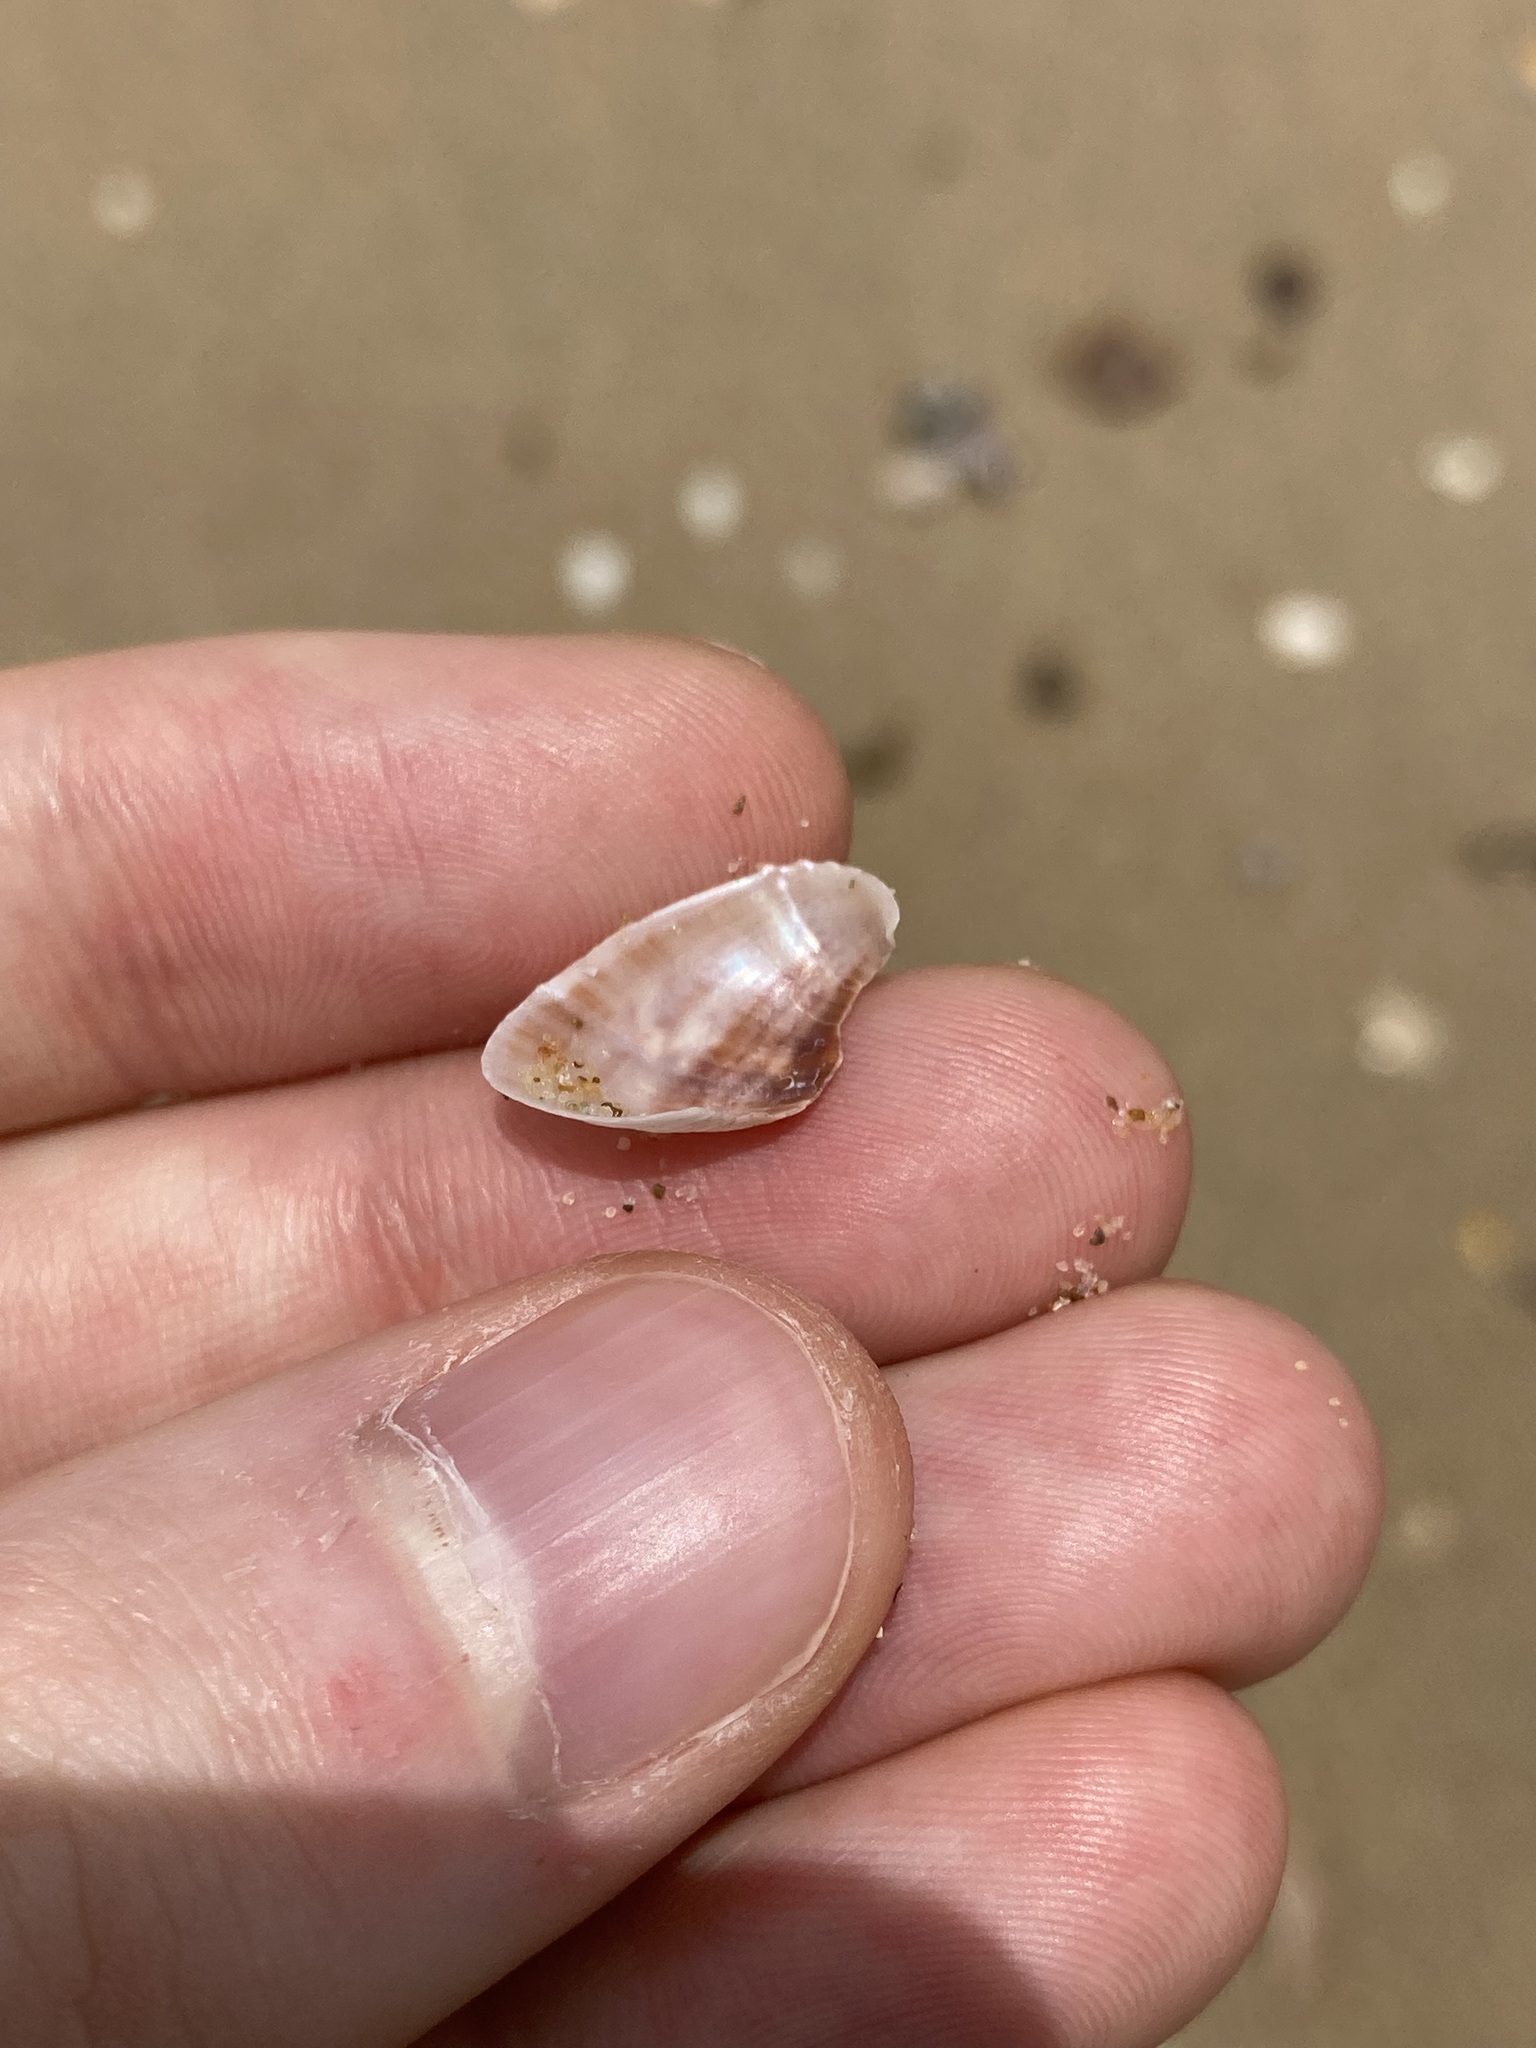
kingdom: Animalia
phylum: Mollusca
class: Bivalvia
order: Mytilida
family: Mytilidae
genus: Musculus
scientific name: Musculus impactus
